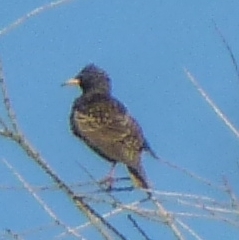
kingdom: Animalia
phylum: Chordata
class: Aves
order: Passeriformes
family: Sturnidae
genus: Sturnus
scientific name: Sturnus vulgaris
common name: Common starling
